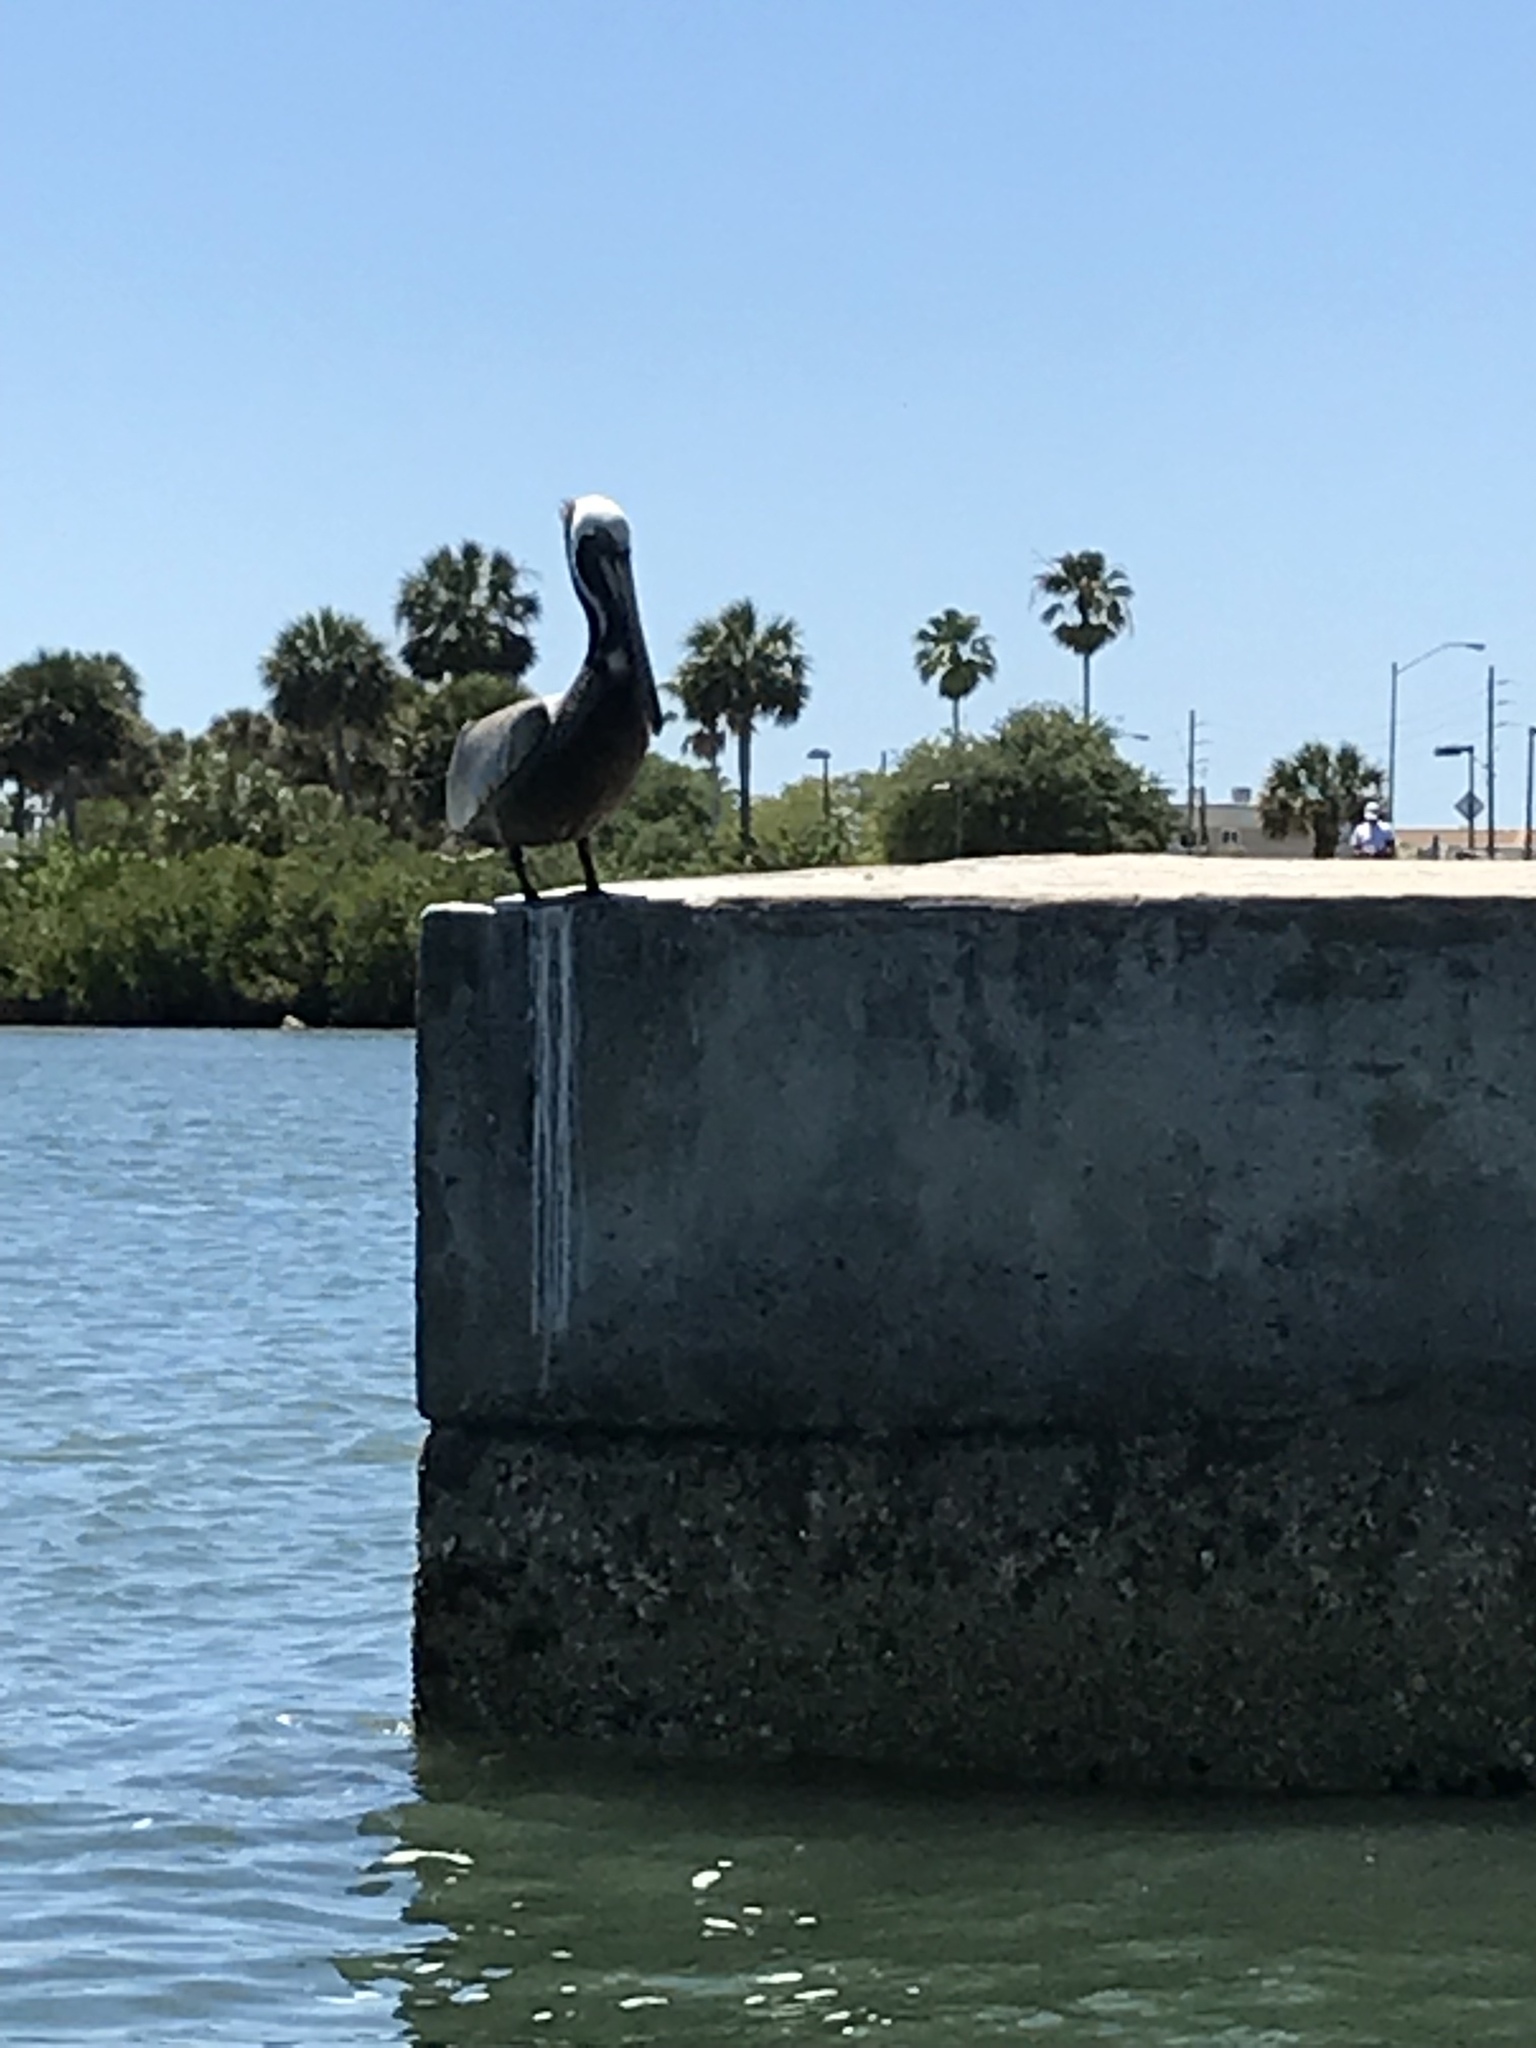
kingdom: Animalia
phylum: Chordata
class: Aves
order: Pelecaniformes
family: Pelecanidae
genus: Pelecanus
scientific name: Pelecanus occidentalis
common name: Brown pelican
